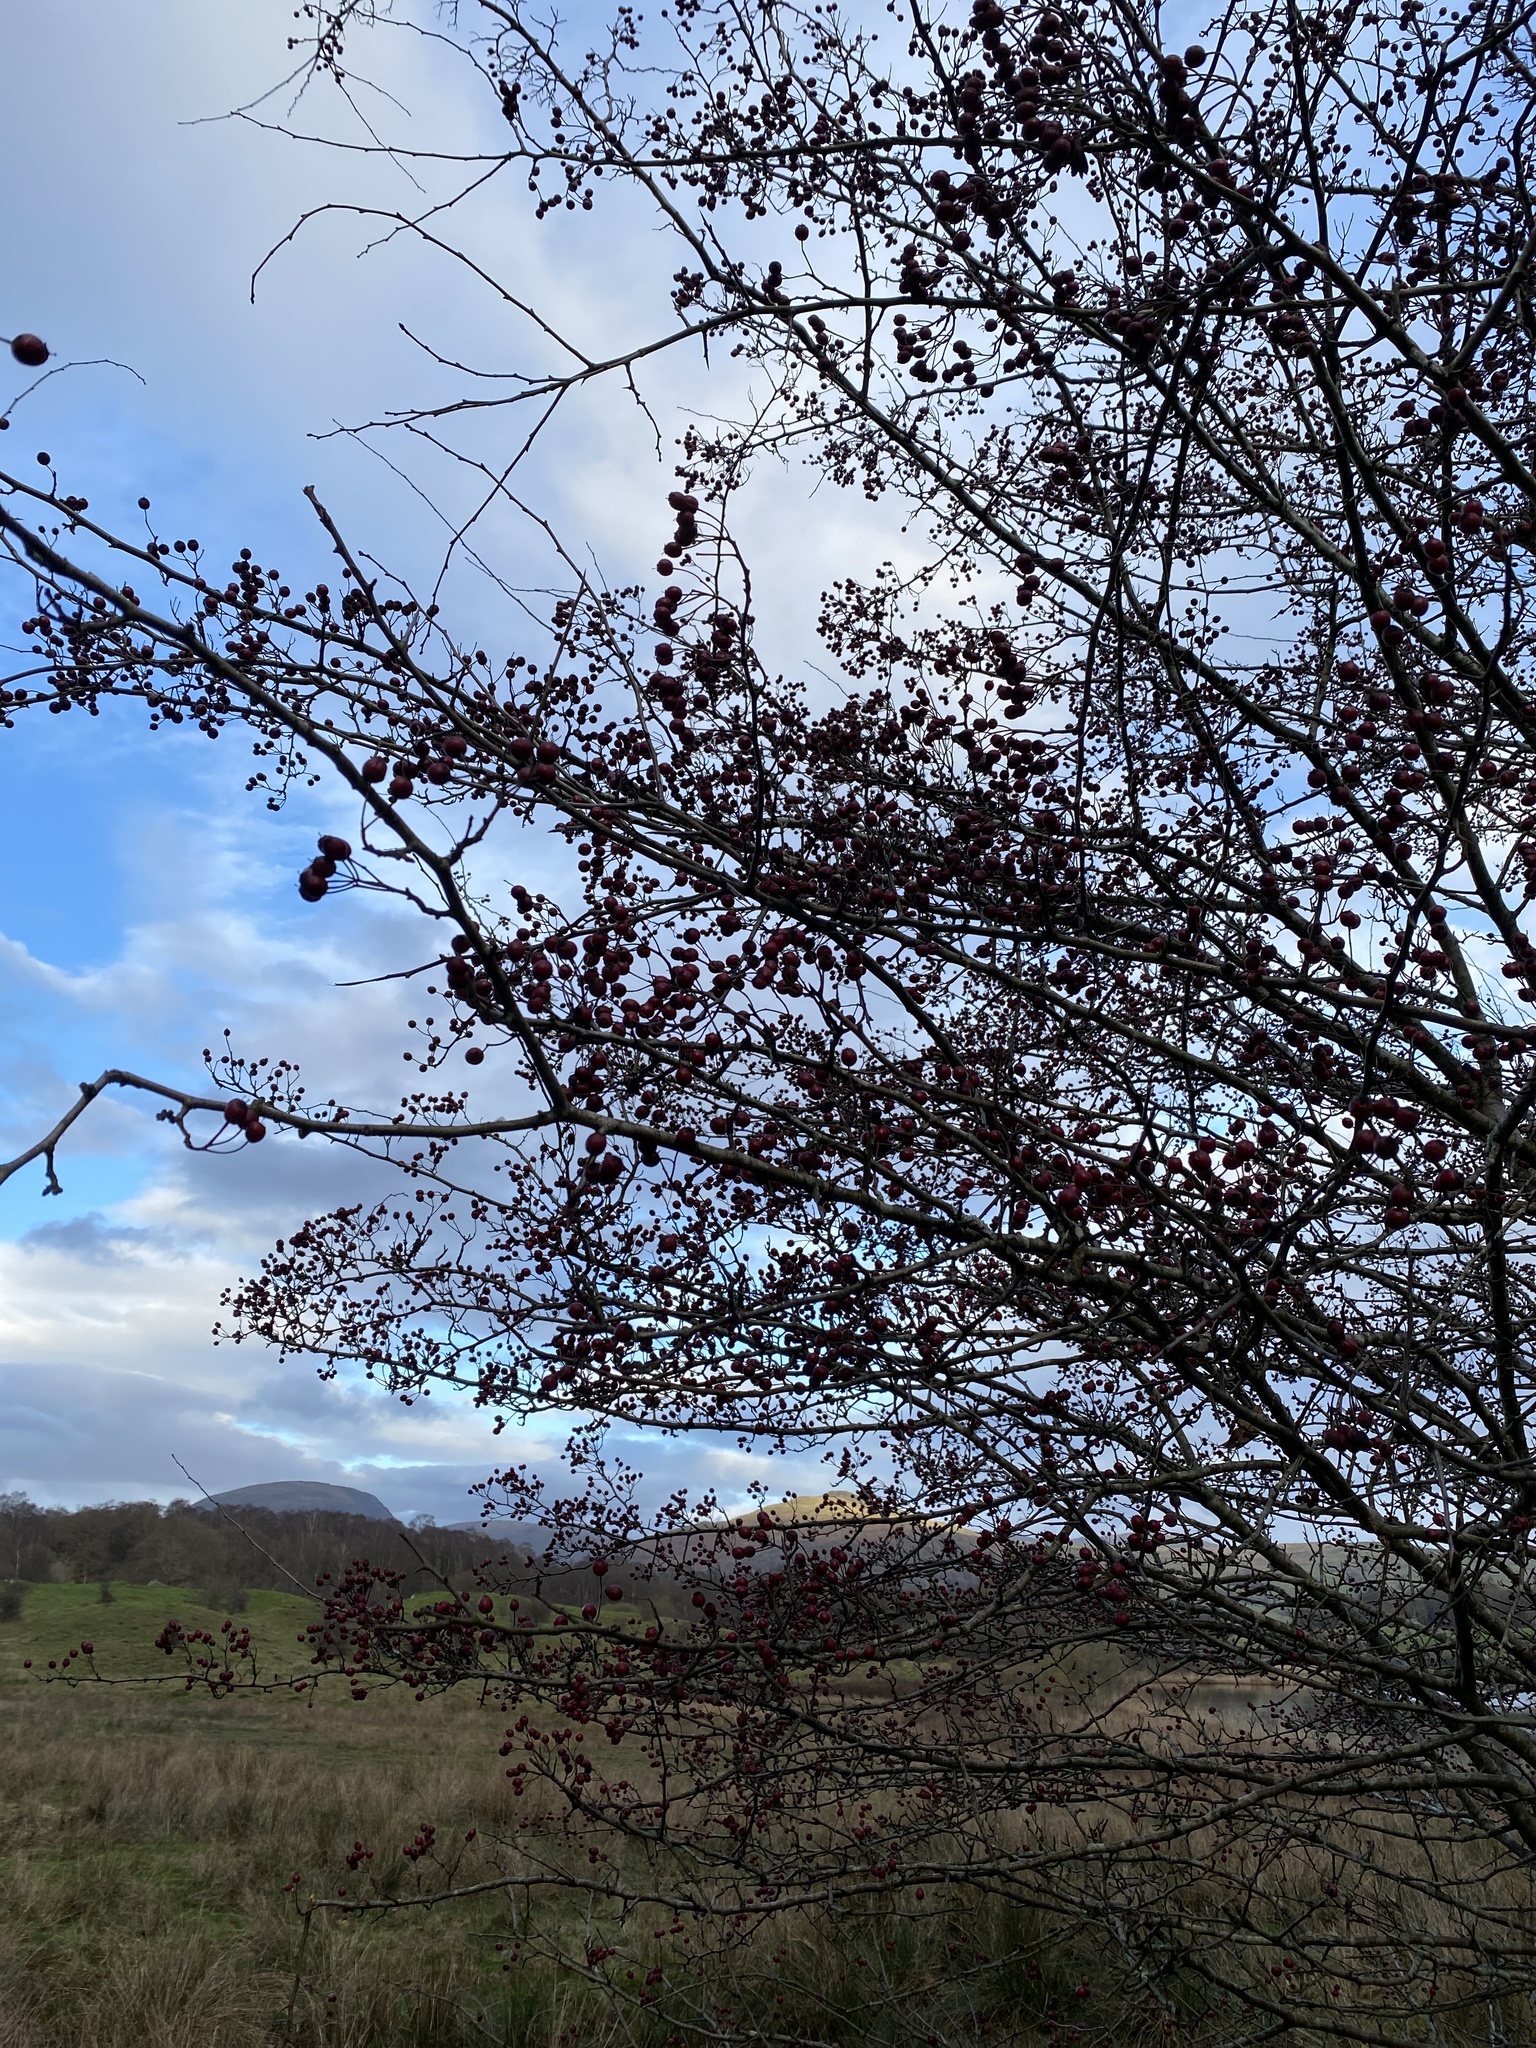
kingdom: Plantae
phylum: Tracheophyta
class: Magnoliopsida
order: Rosales
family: Rosaceae
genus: Crataegus
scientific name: Crataegus monogyna
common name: Hawthorn
